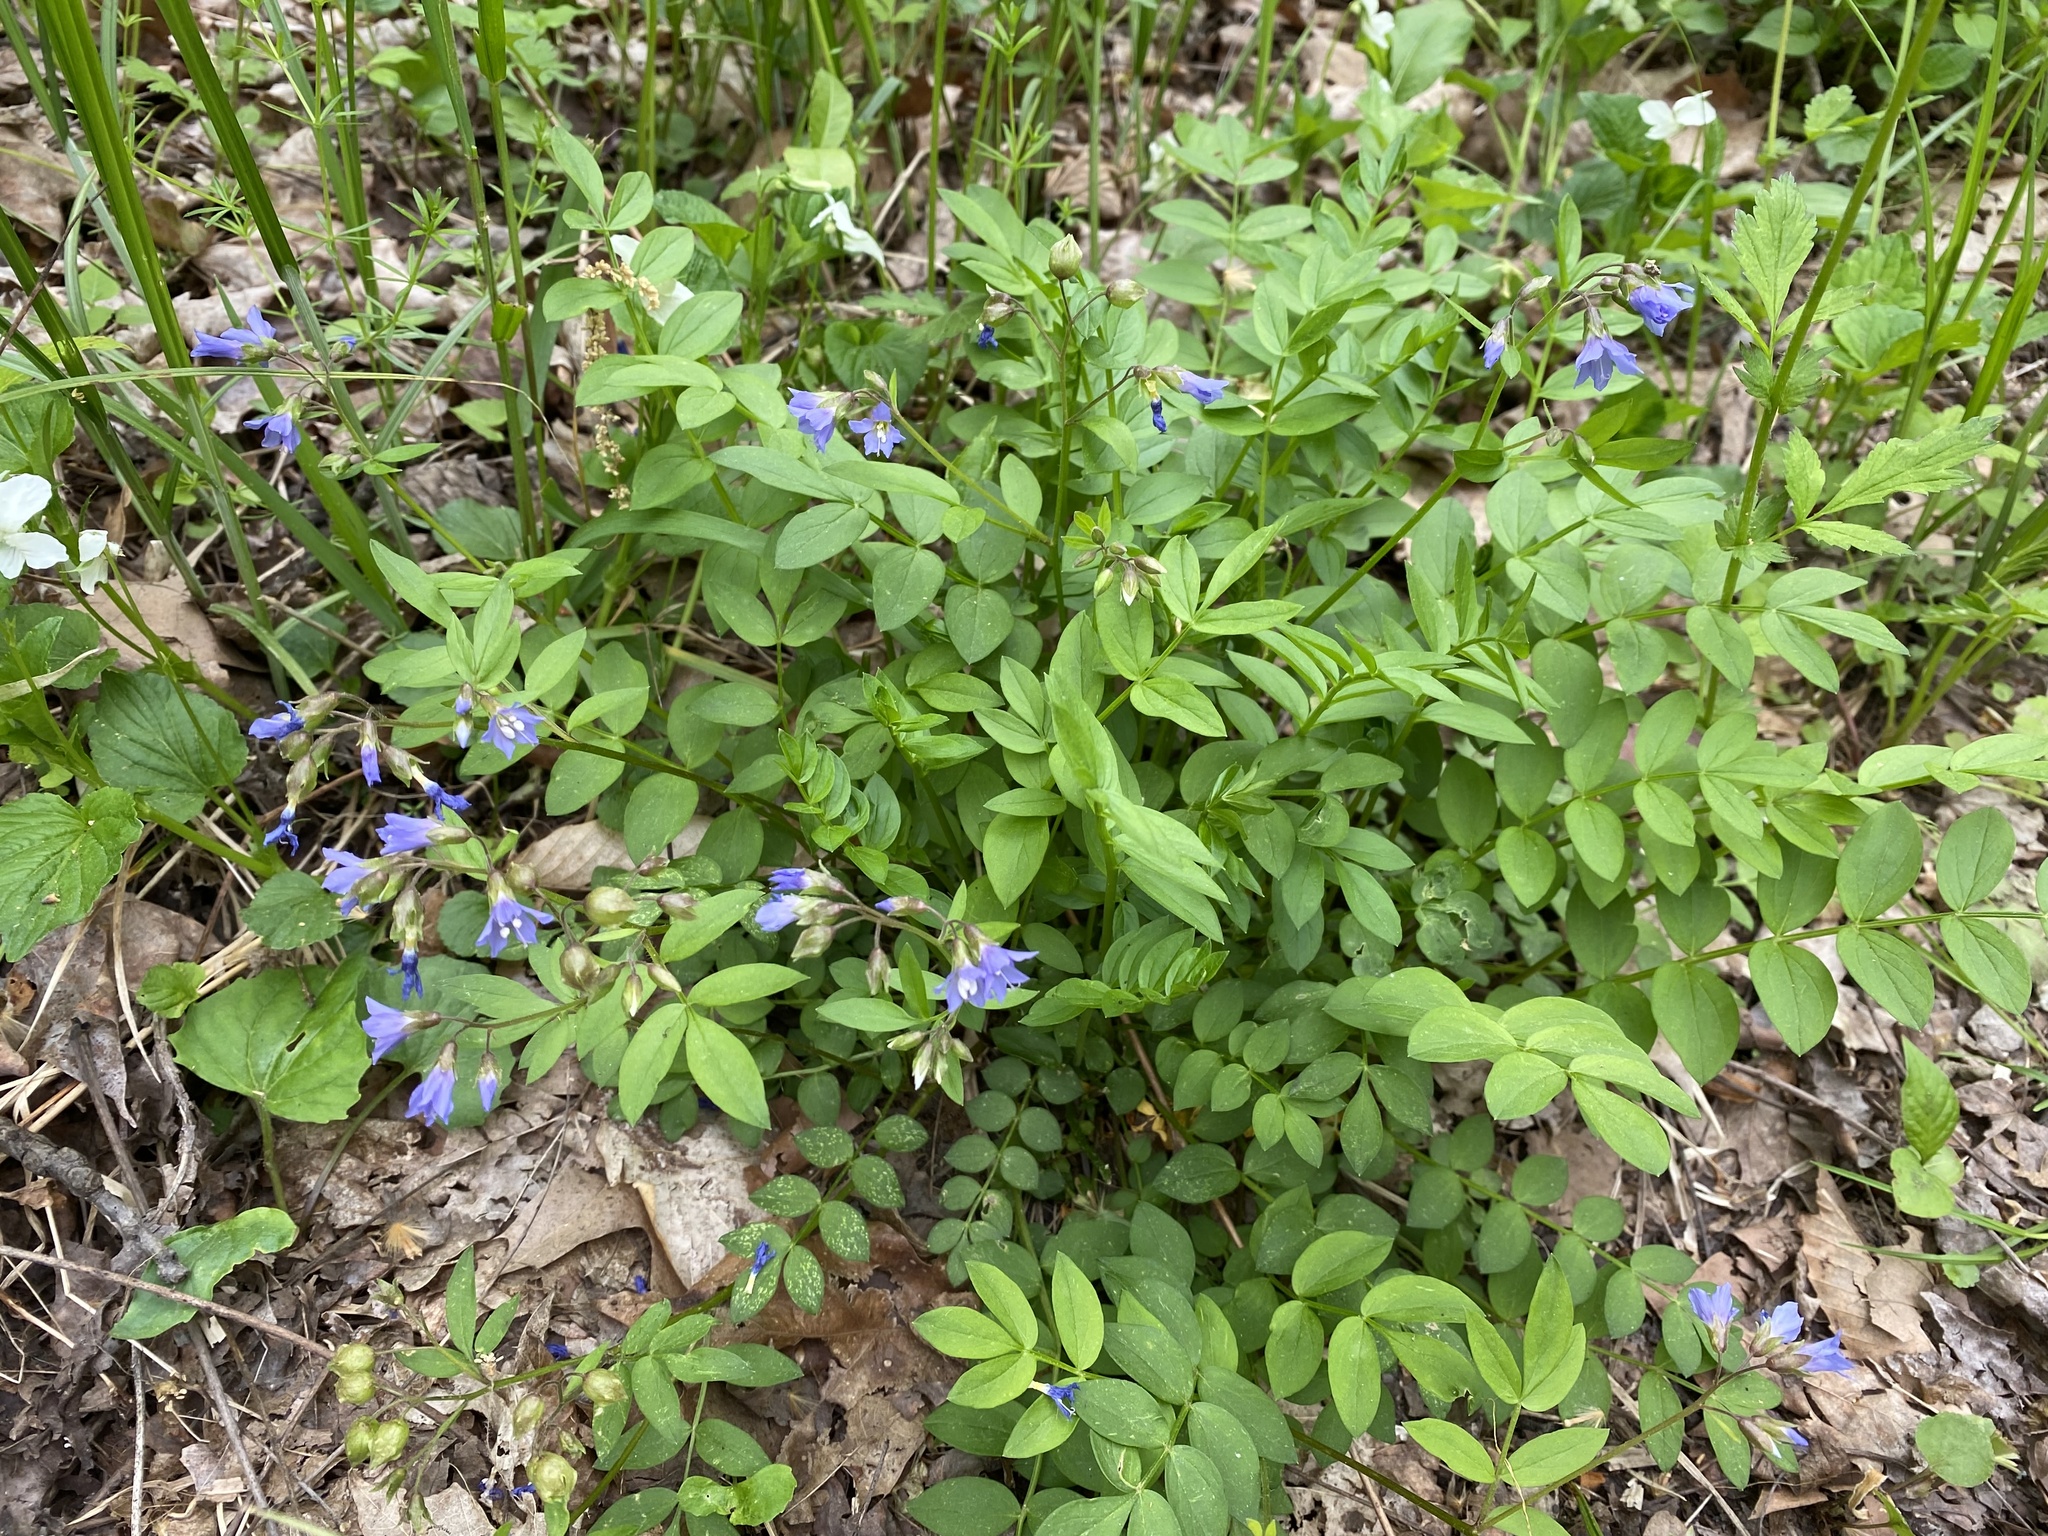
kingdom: Plantae
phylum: Tracheophyta
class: Magnoliopsida
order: Ericales
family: Polemoniaceae
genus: Polemonium
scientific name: Polemonium reptans
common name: Creeping jacob's-ladder
